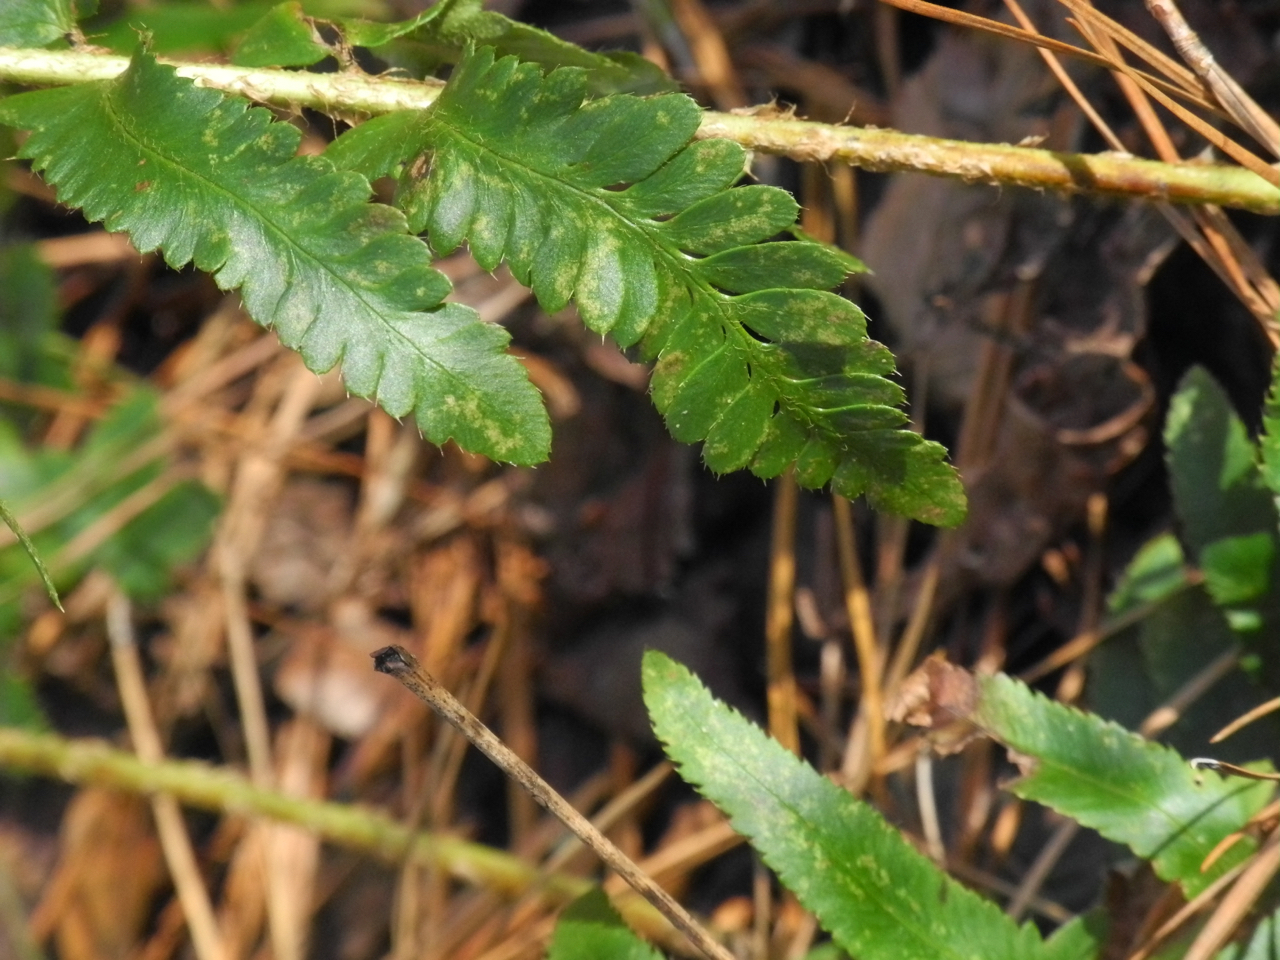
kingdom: Plantae
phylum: Tracheophyta
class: Polypodiopsida
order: Polypodiales
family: Dryopteridaceae
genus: Polystichum
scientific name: Polystichum acrostichoides
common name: Christmas fern
